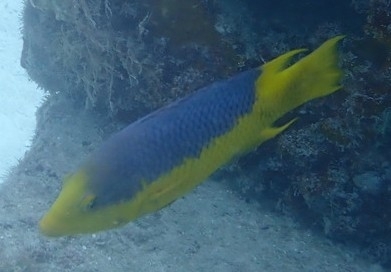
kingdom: Animalia
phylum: Chordata
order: Perciformes
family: Labridae
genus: Bodianus
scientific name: Bodianus rufus
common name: Spanish hogfish
